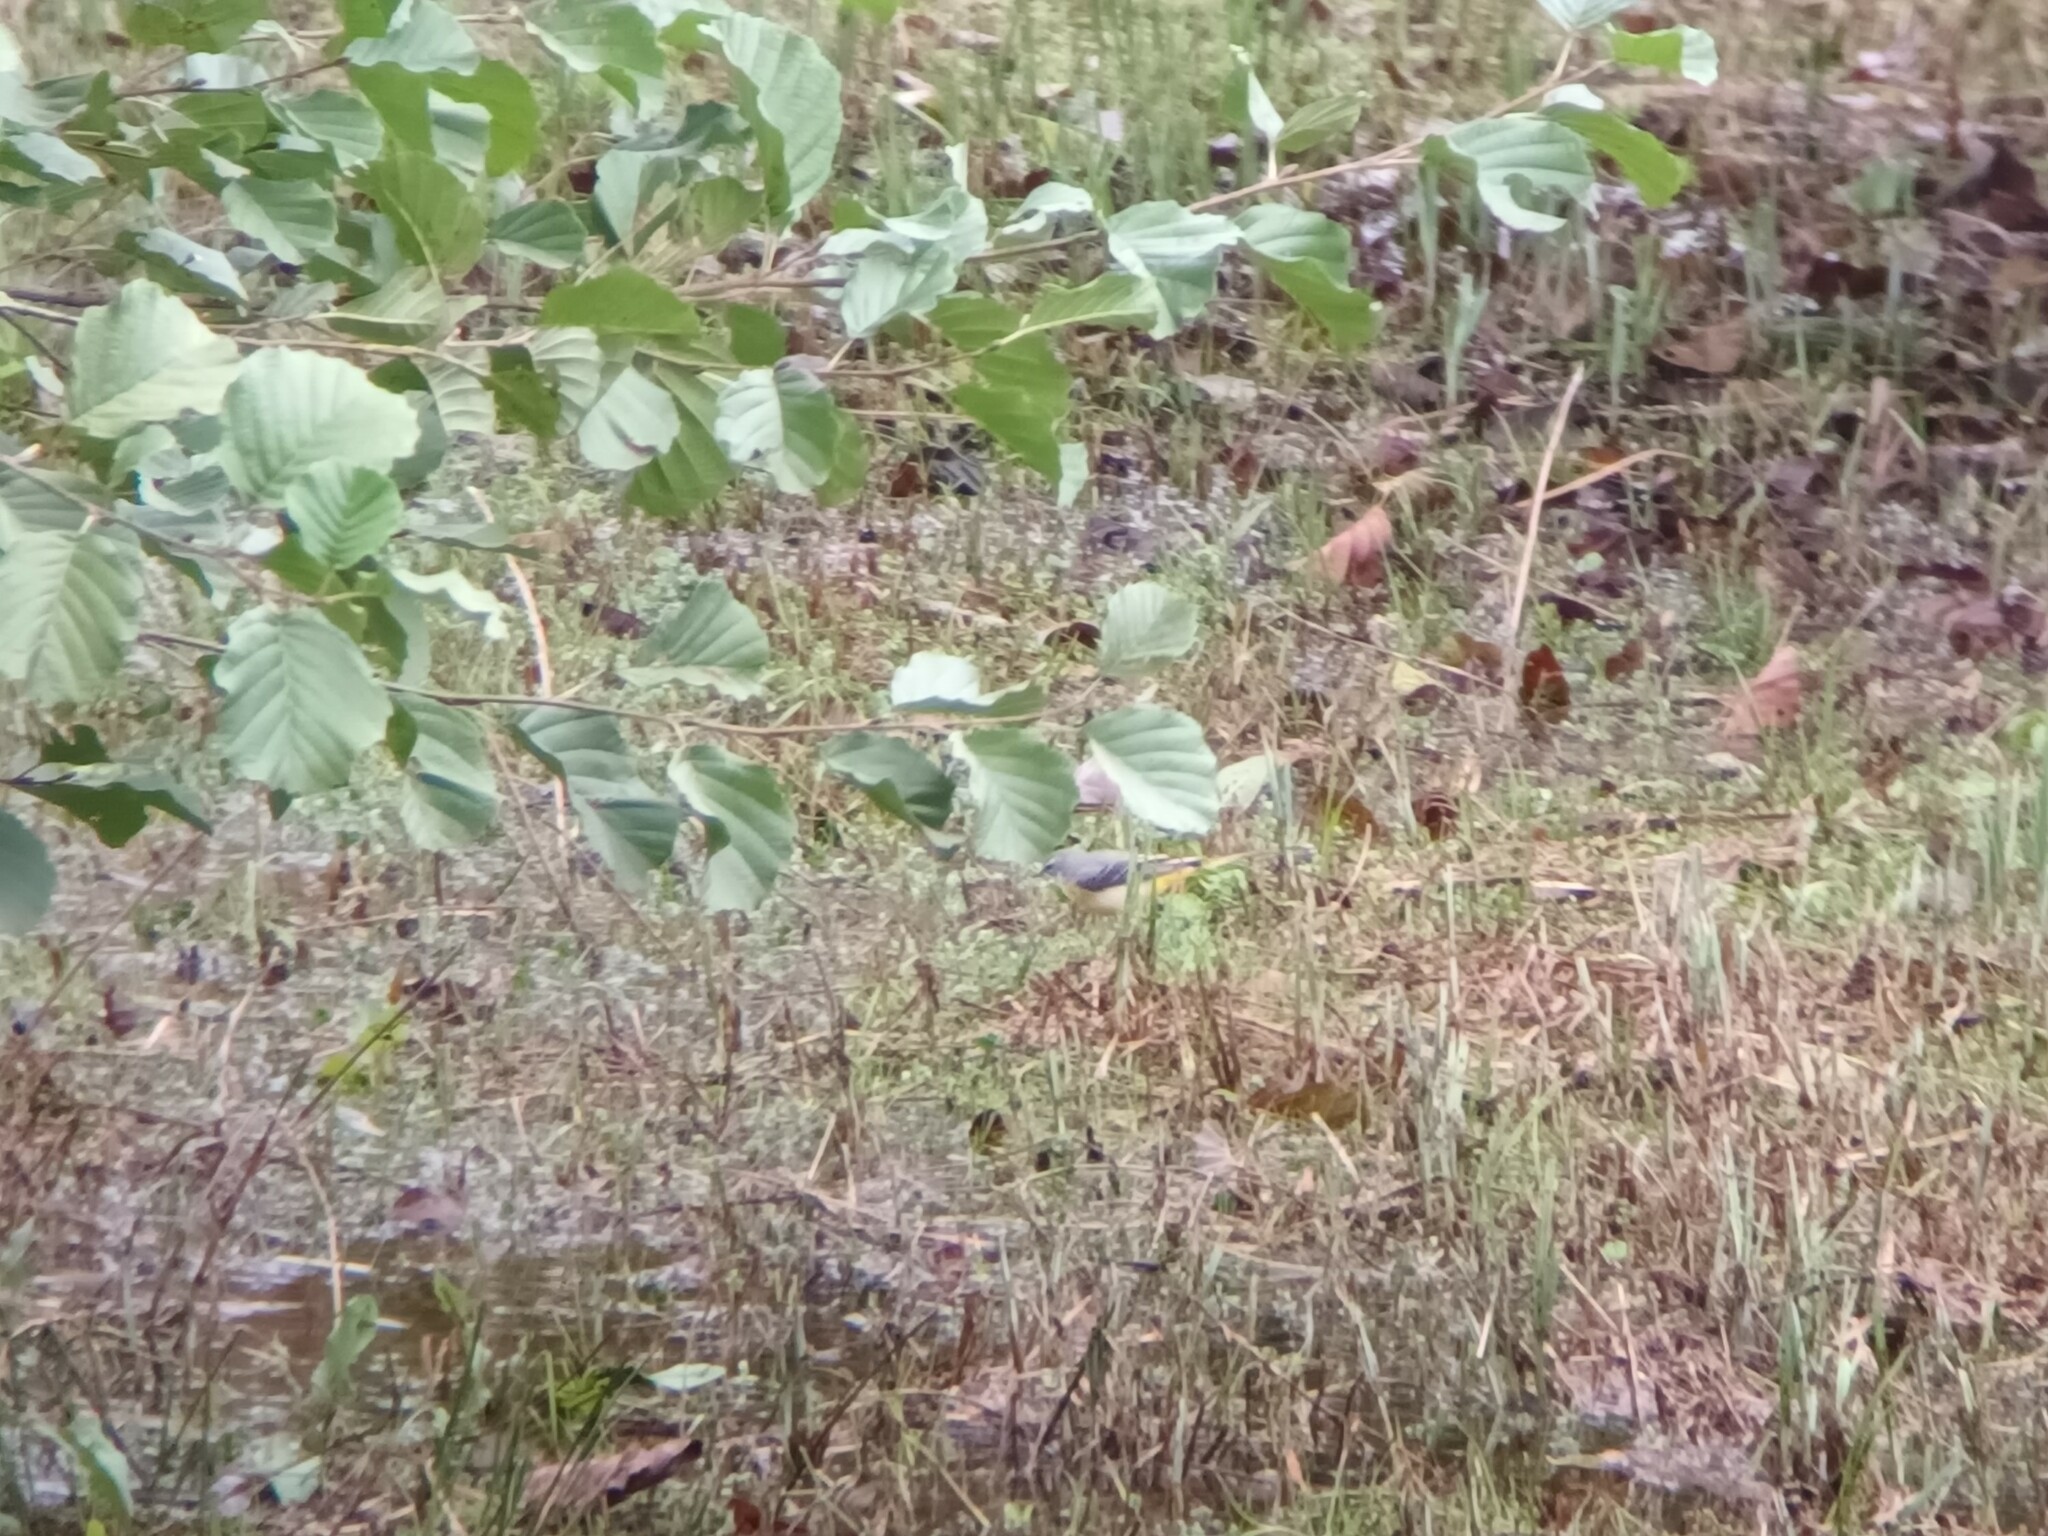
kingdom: Animalia
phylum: Chordata
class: Aves
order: Passeriformes
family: Motacillidae
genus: Motacilla
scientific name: Motacilla cinerea
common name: Grey wagtail
